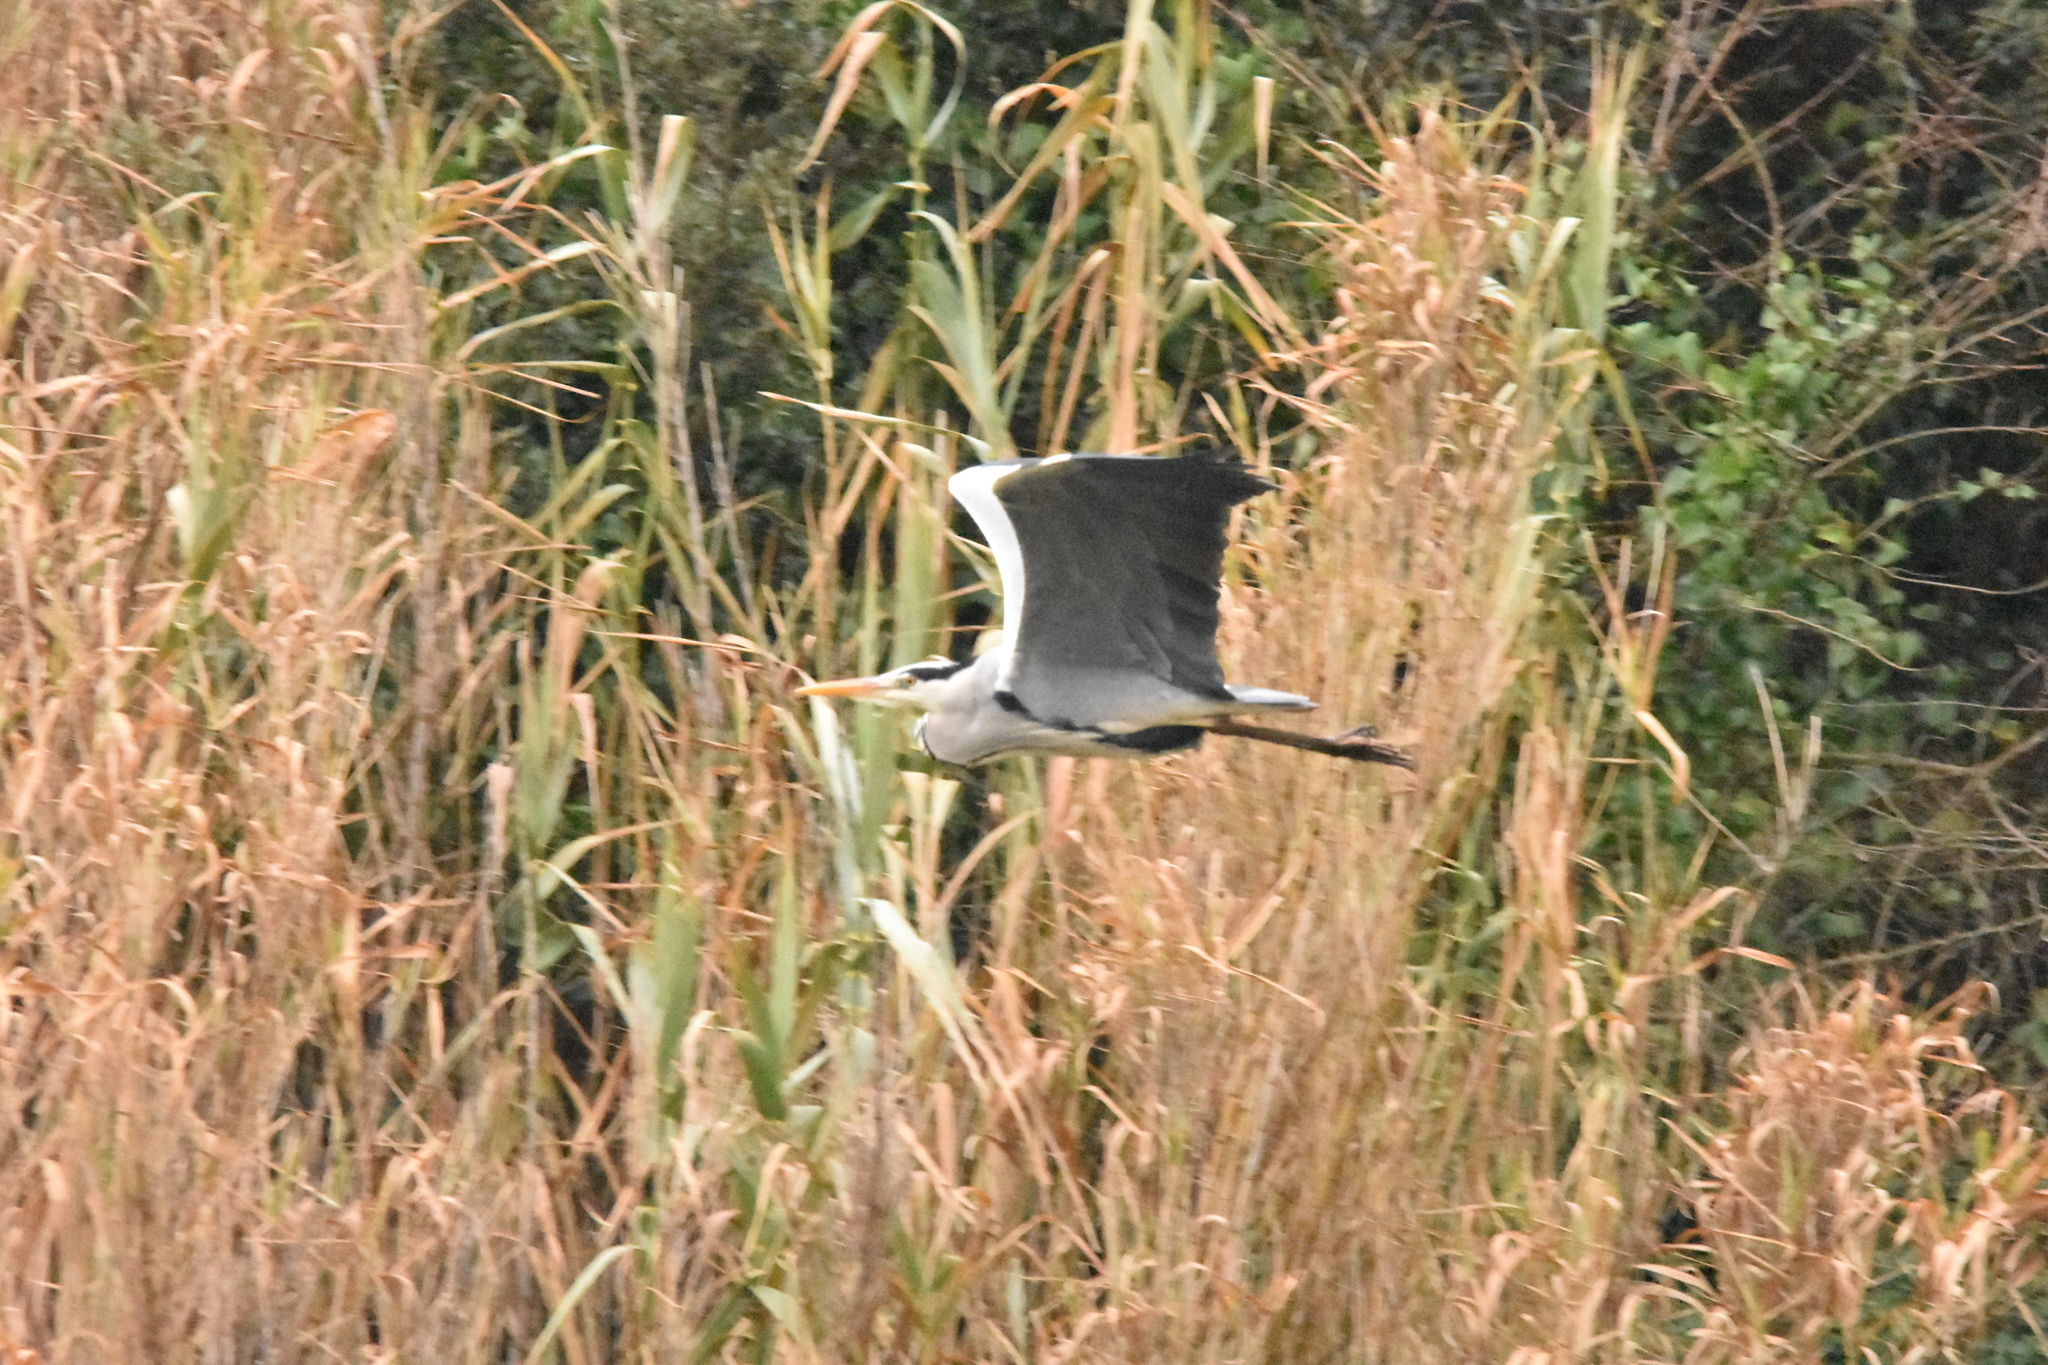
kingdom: Animalia
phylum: Chordata
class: Aves
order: Pelecaniformes
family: Ardeidae
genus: Ardea
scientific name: Ardea cinerea
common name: Grey heron
